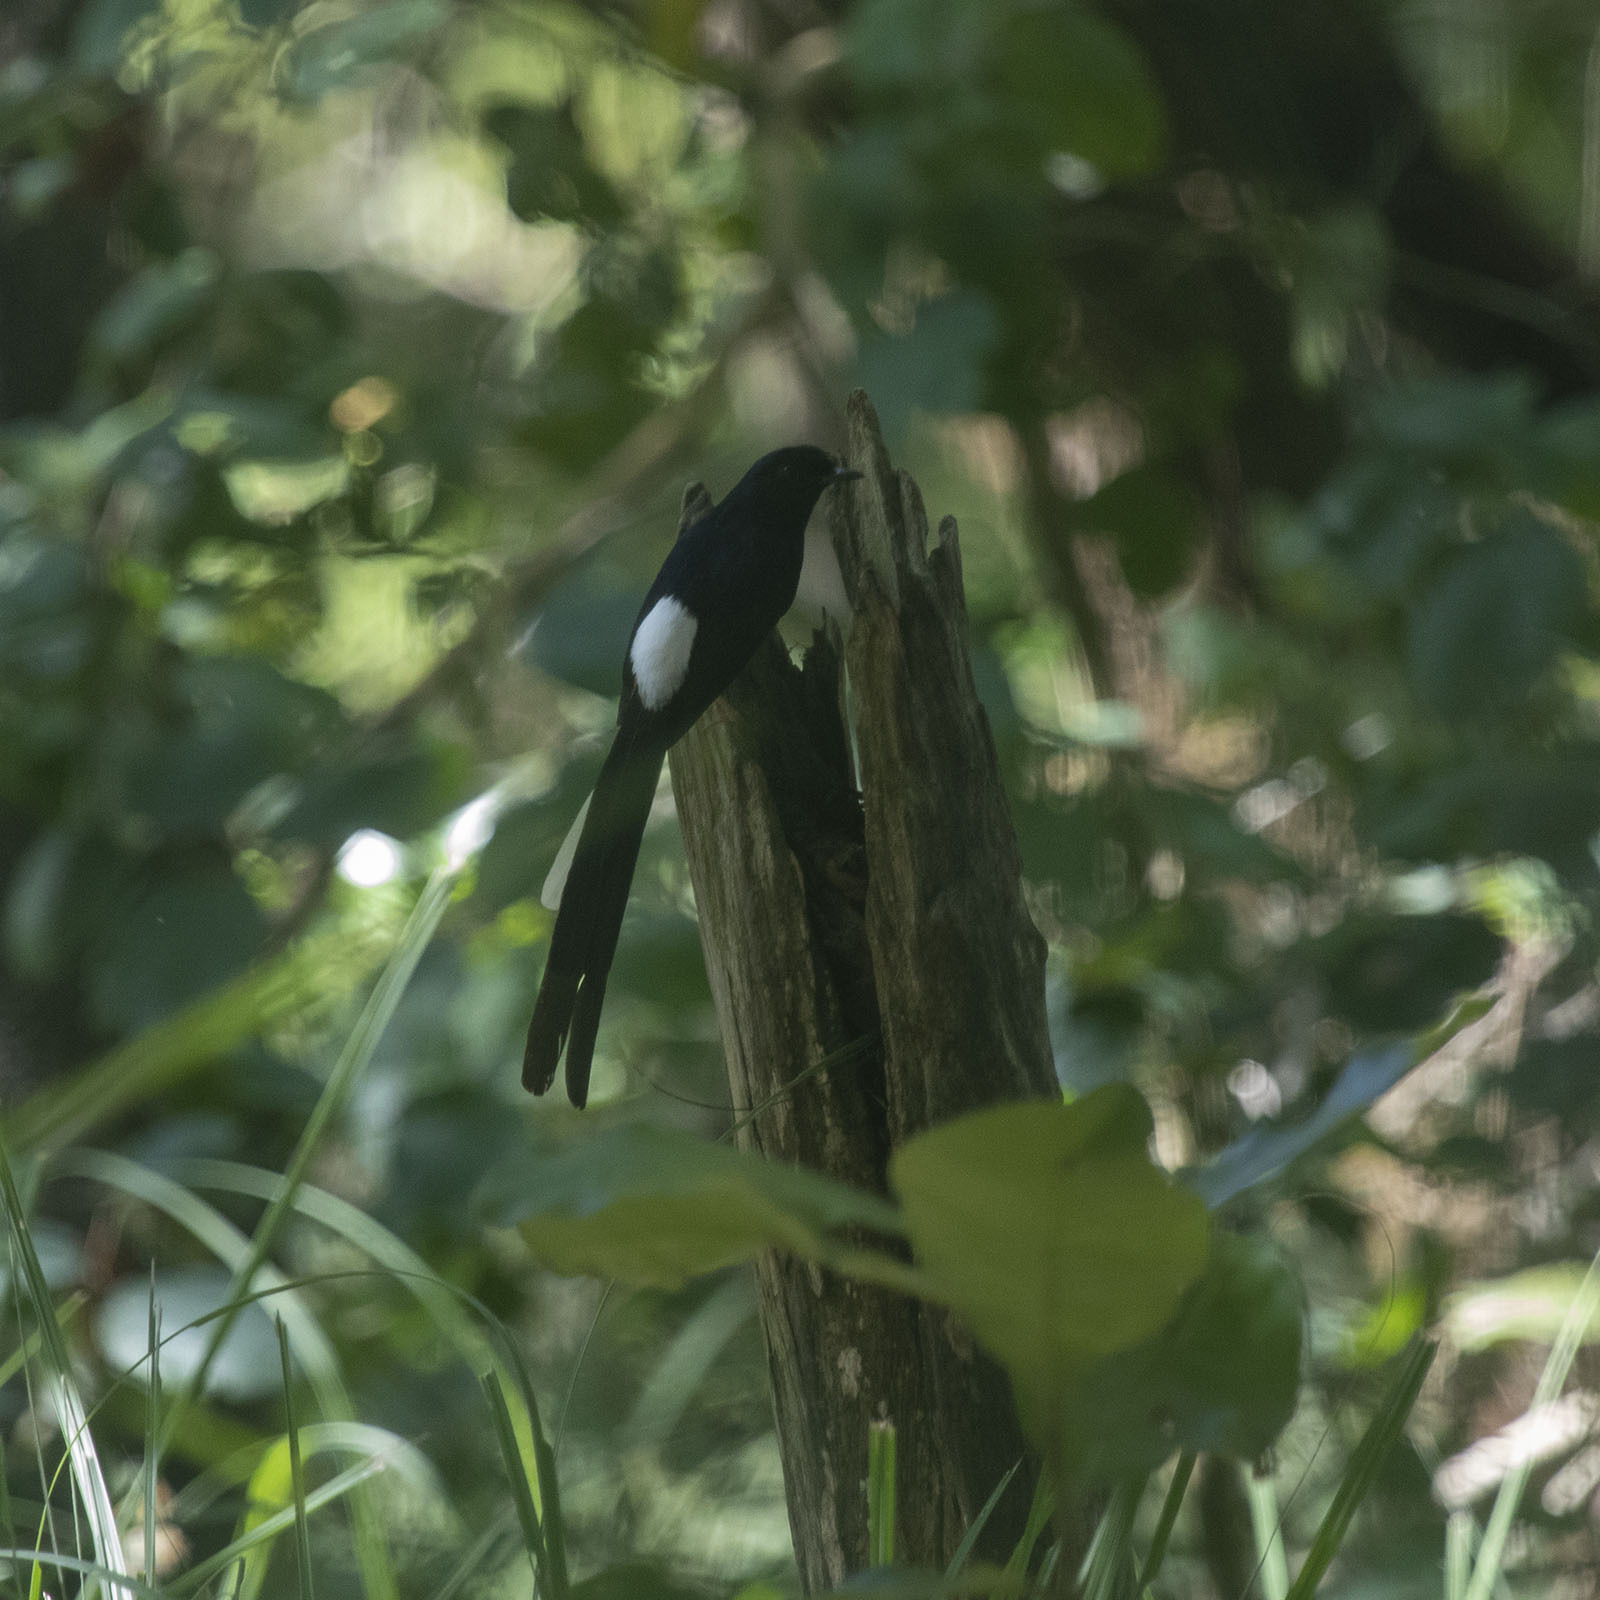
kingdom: Animalia
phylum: Chordata
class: Aves
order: Passeriformes
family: Muscicapidae
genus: Copsychus
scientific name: Copsychus malabaricus
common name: White-rumped shama
